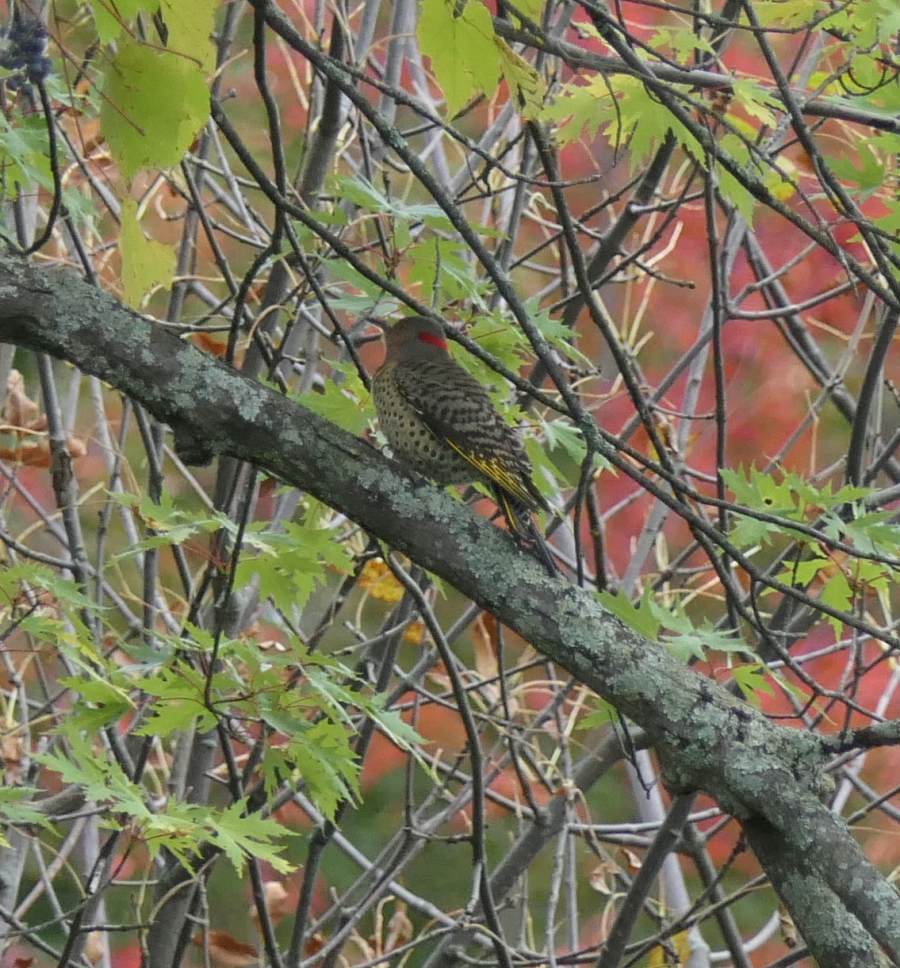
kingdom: Animalia
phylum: Chordata
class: Aves
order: Piciformes
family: Picidae
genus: Colaptes
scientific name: Colaptes auratus
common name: Northern flicker
